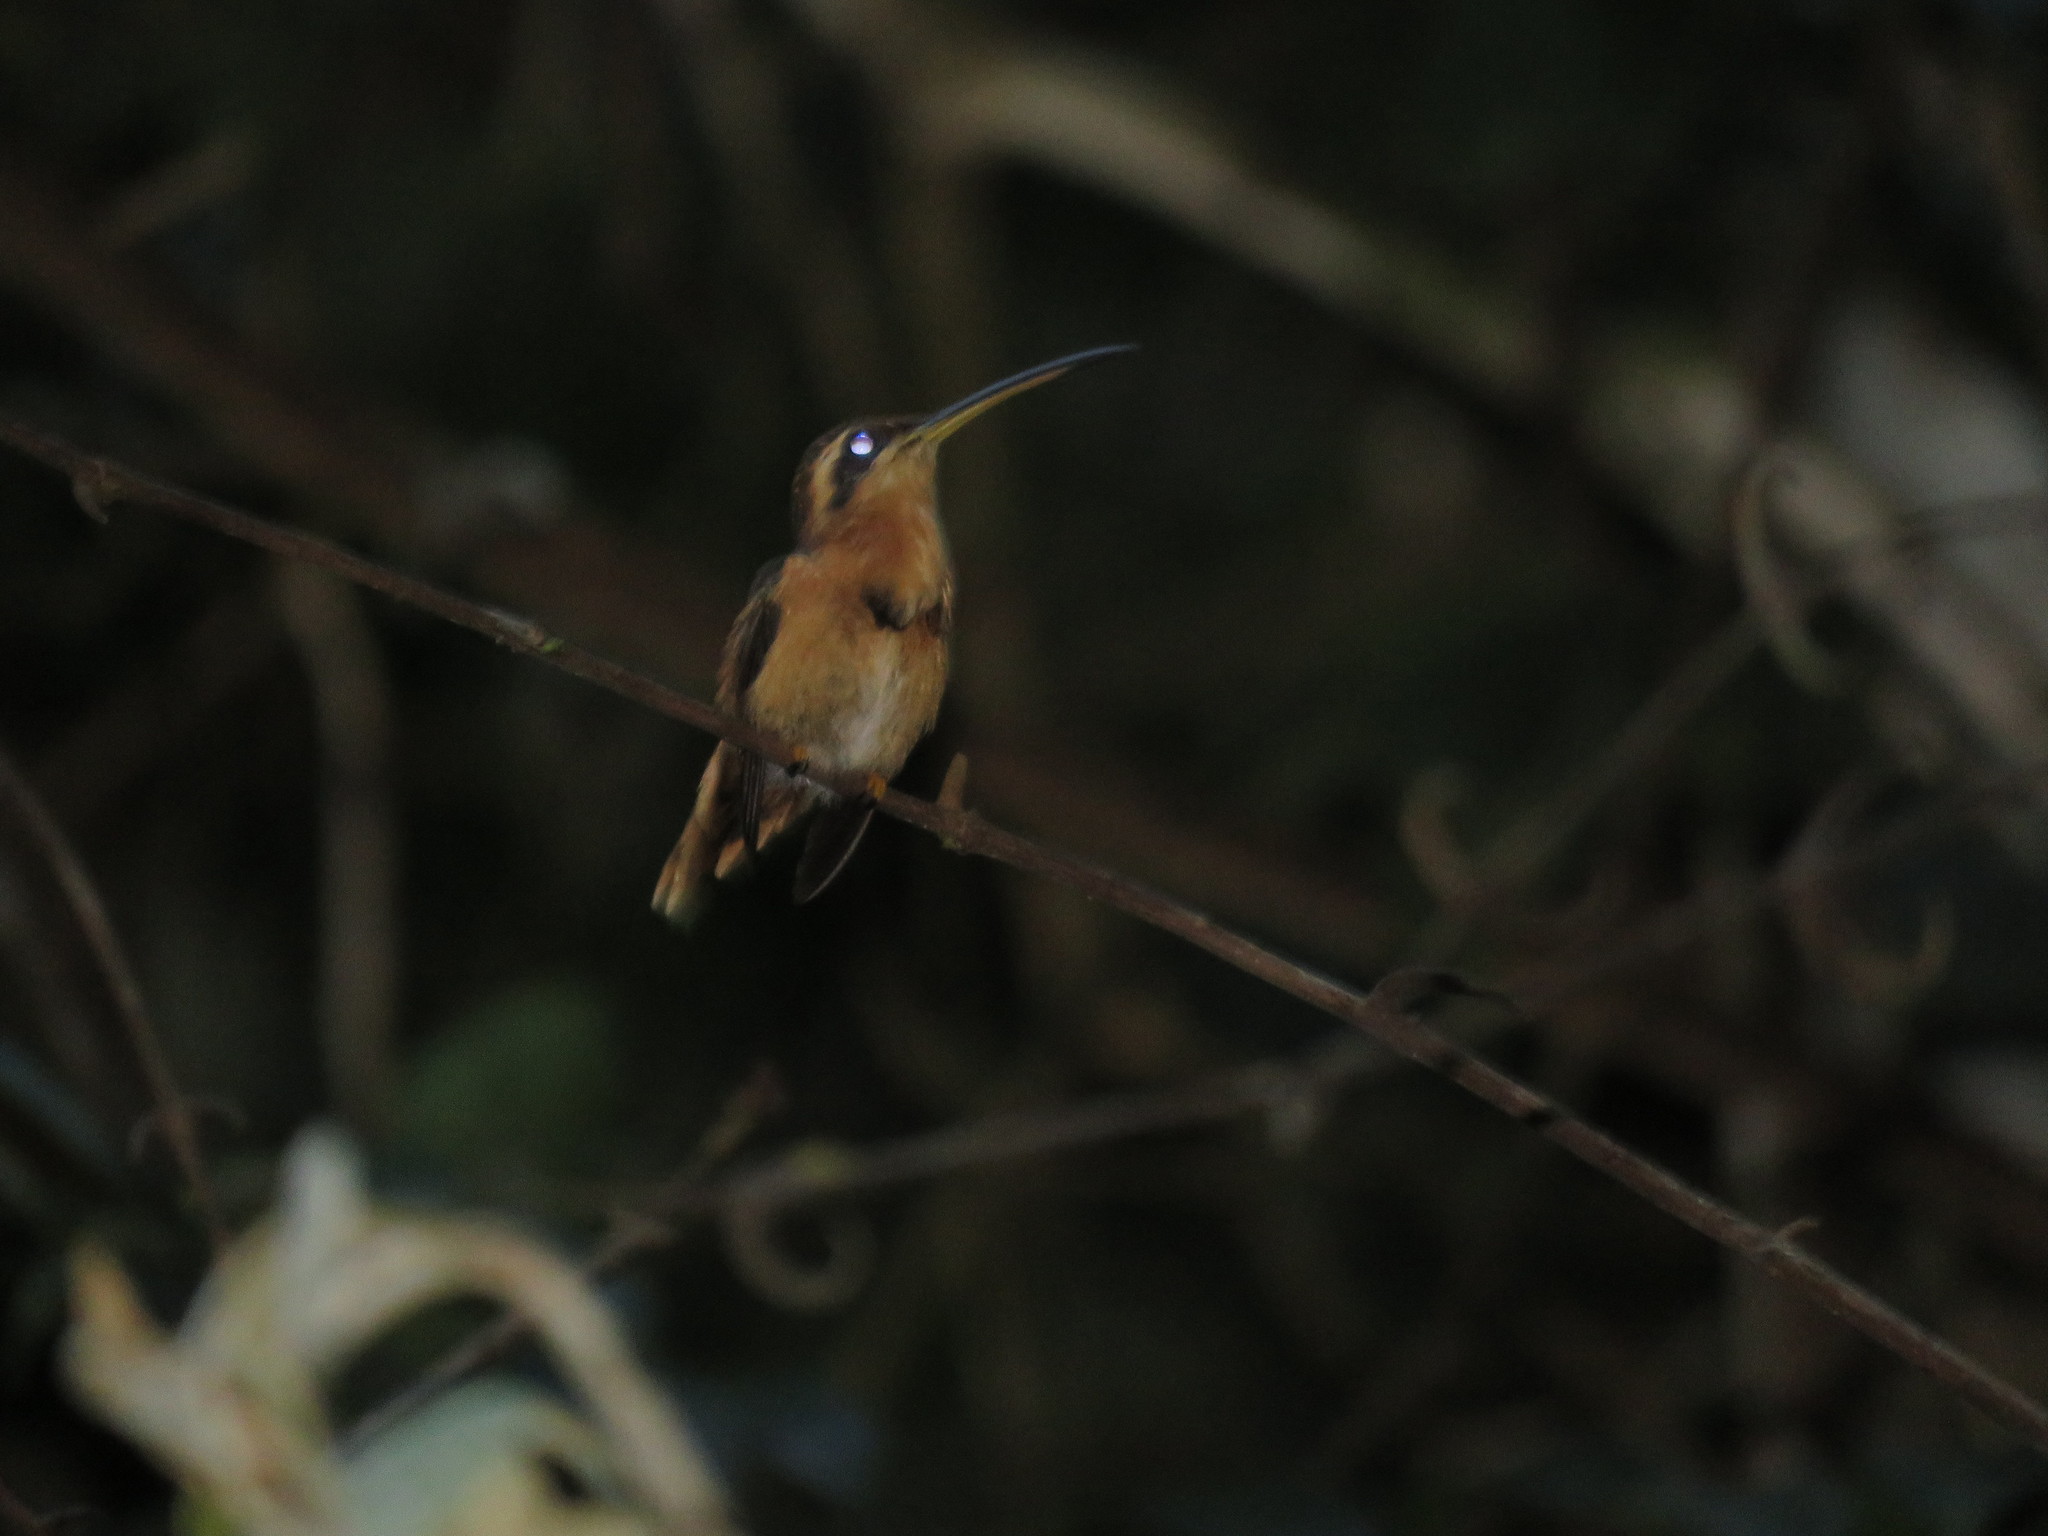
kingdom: Animalia
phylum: Chordata
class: Aves
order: Apodiformes
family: Trochilidae
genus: Phaethornis
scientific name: Phaethornis ruber
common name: Reddish hermit
